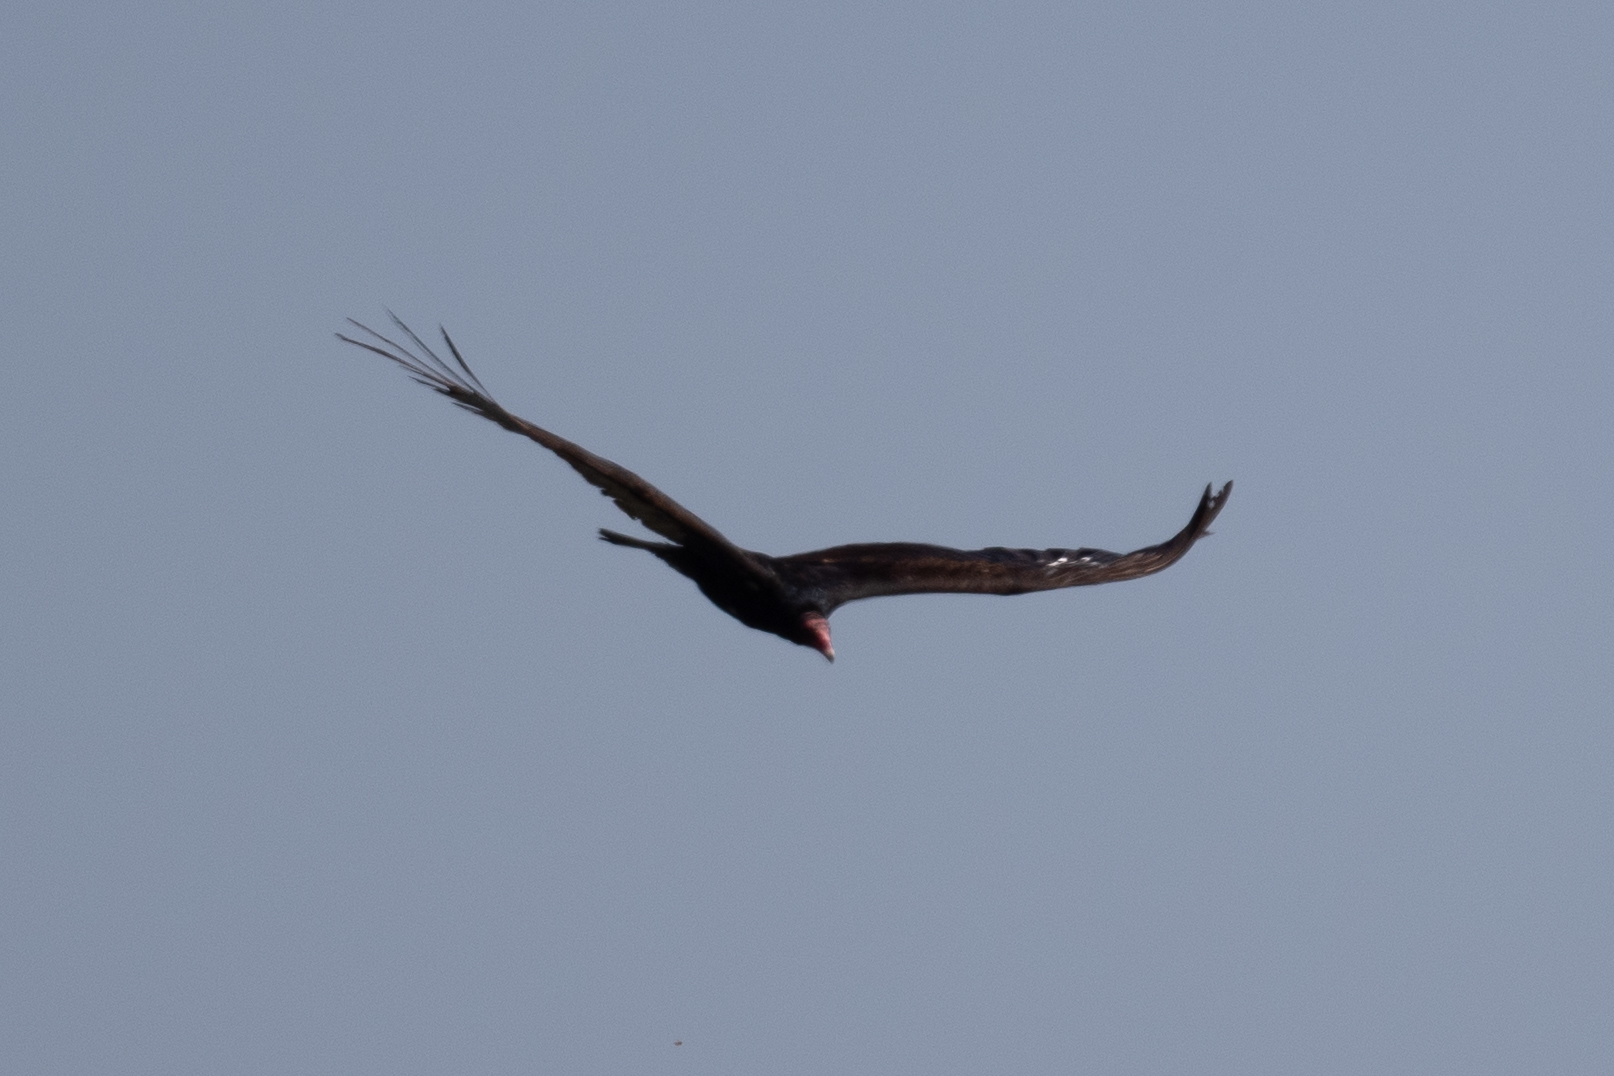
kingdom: Animalia
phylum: Chordata
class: Aves
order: Accipitriformes
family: Cathartidae
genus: Cathartes
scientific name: Cathartes aura
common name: Turkey vulture
